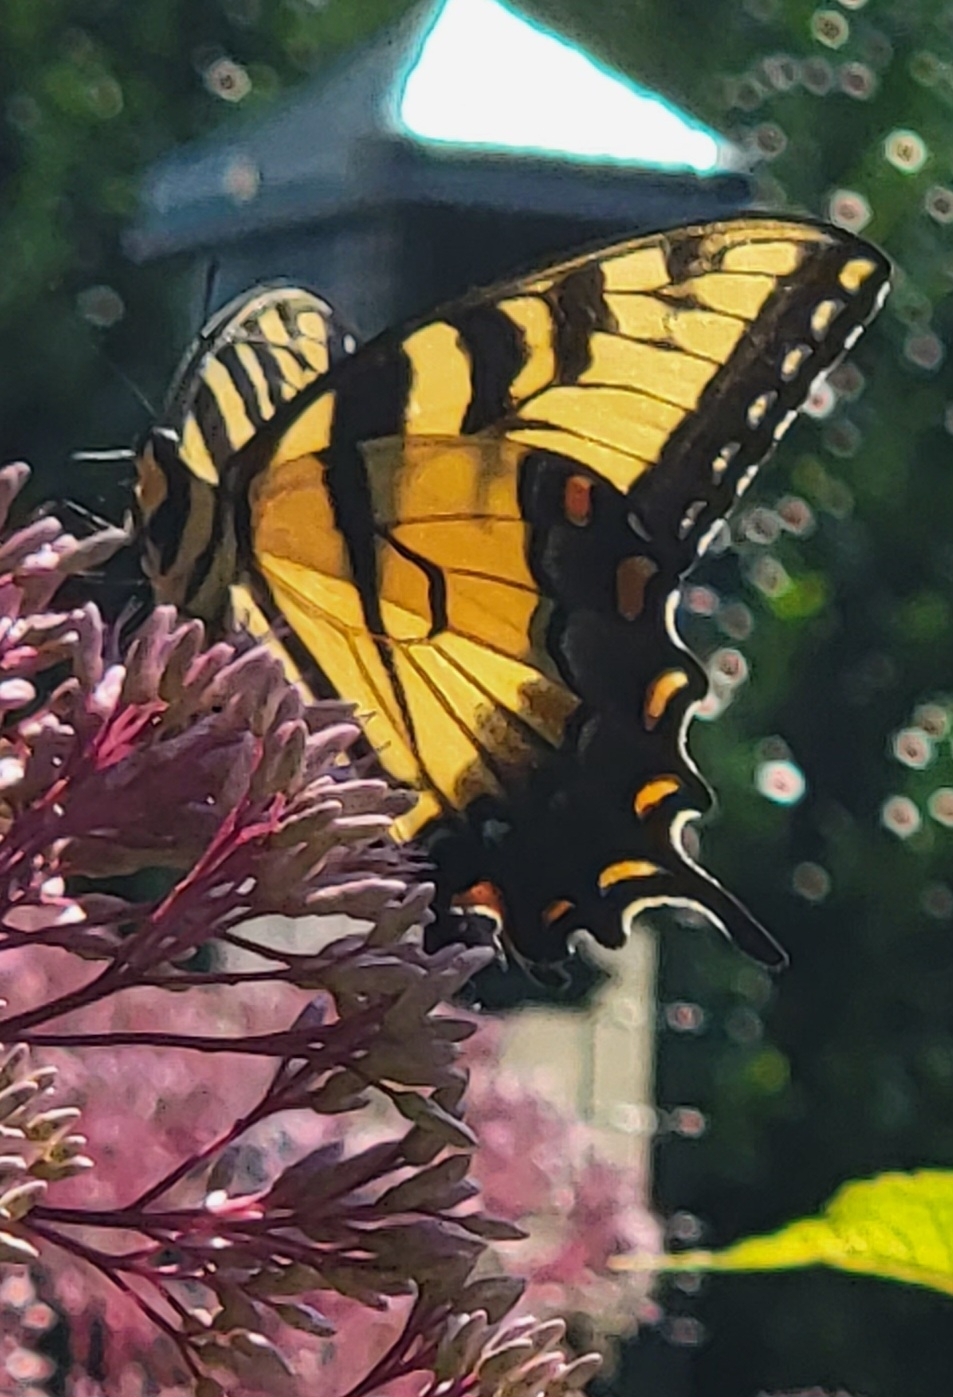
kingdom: Animalia
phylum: Arthropoda
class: Insecta
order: Lepidoptera
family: Papilionidae
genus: Papilio
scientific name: Papilio glaucus
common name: Tiger swallowtail
